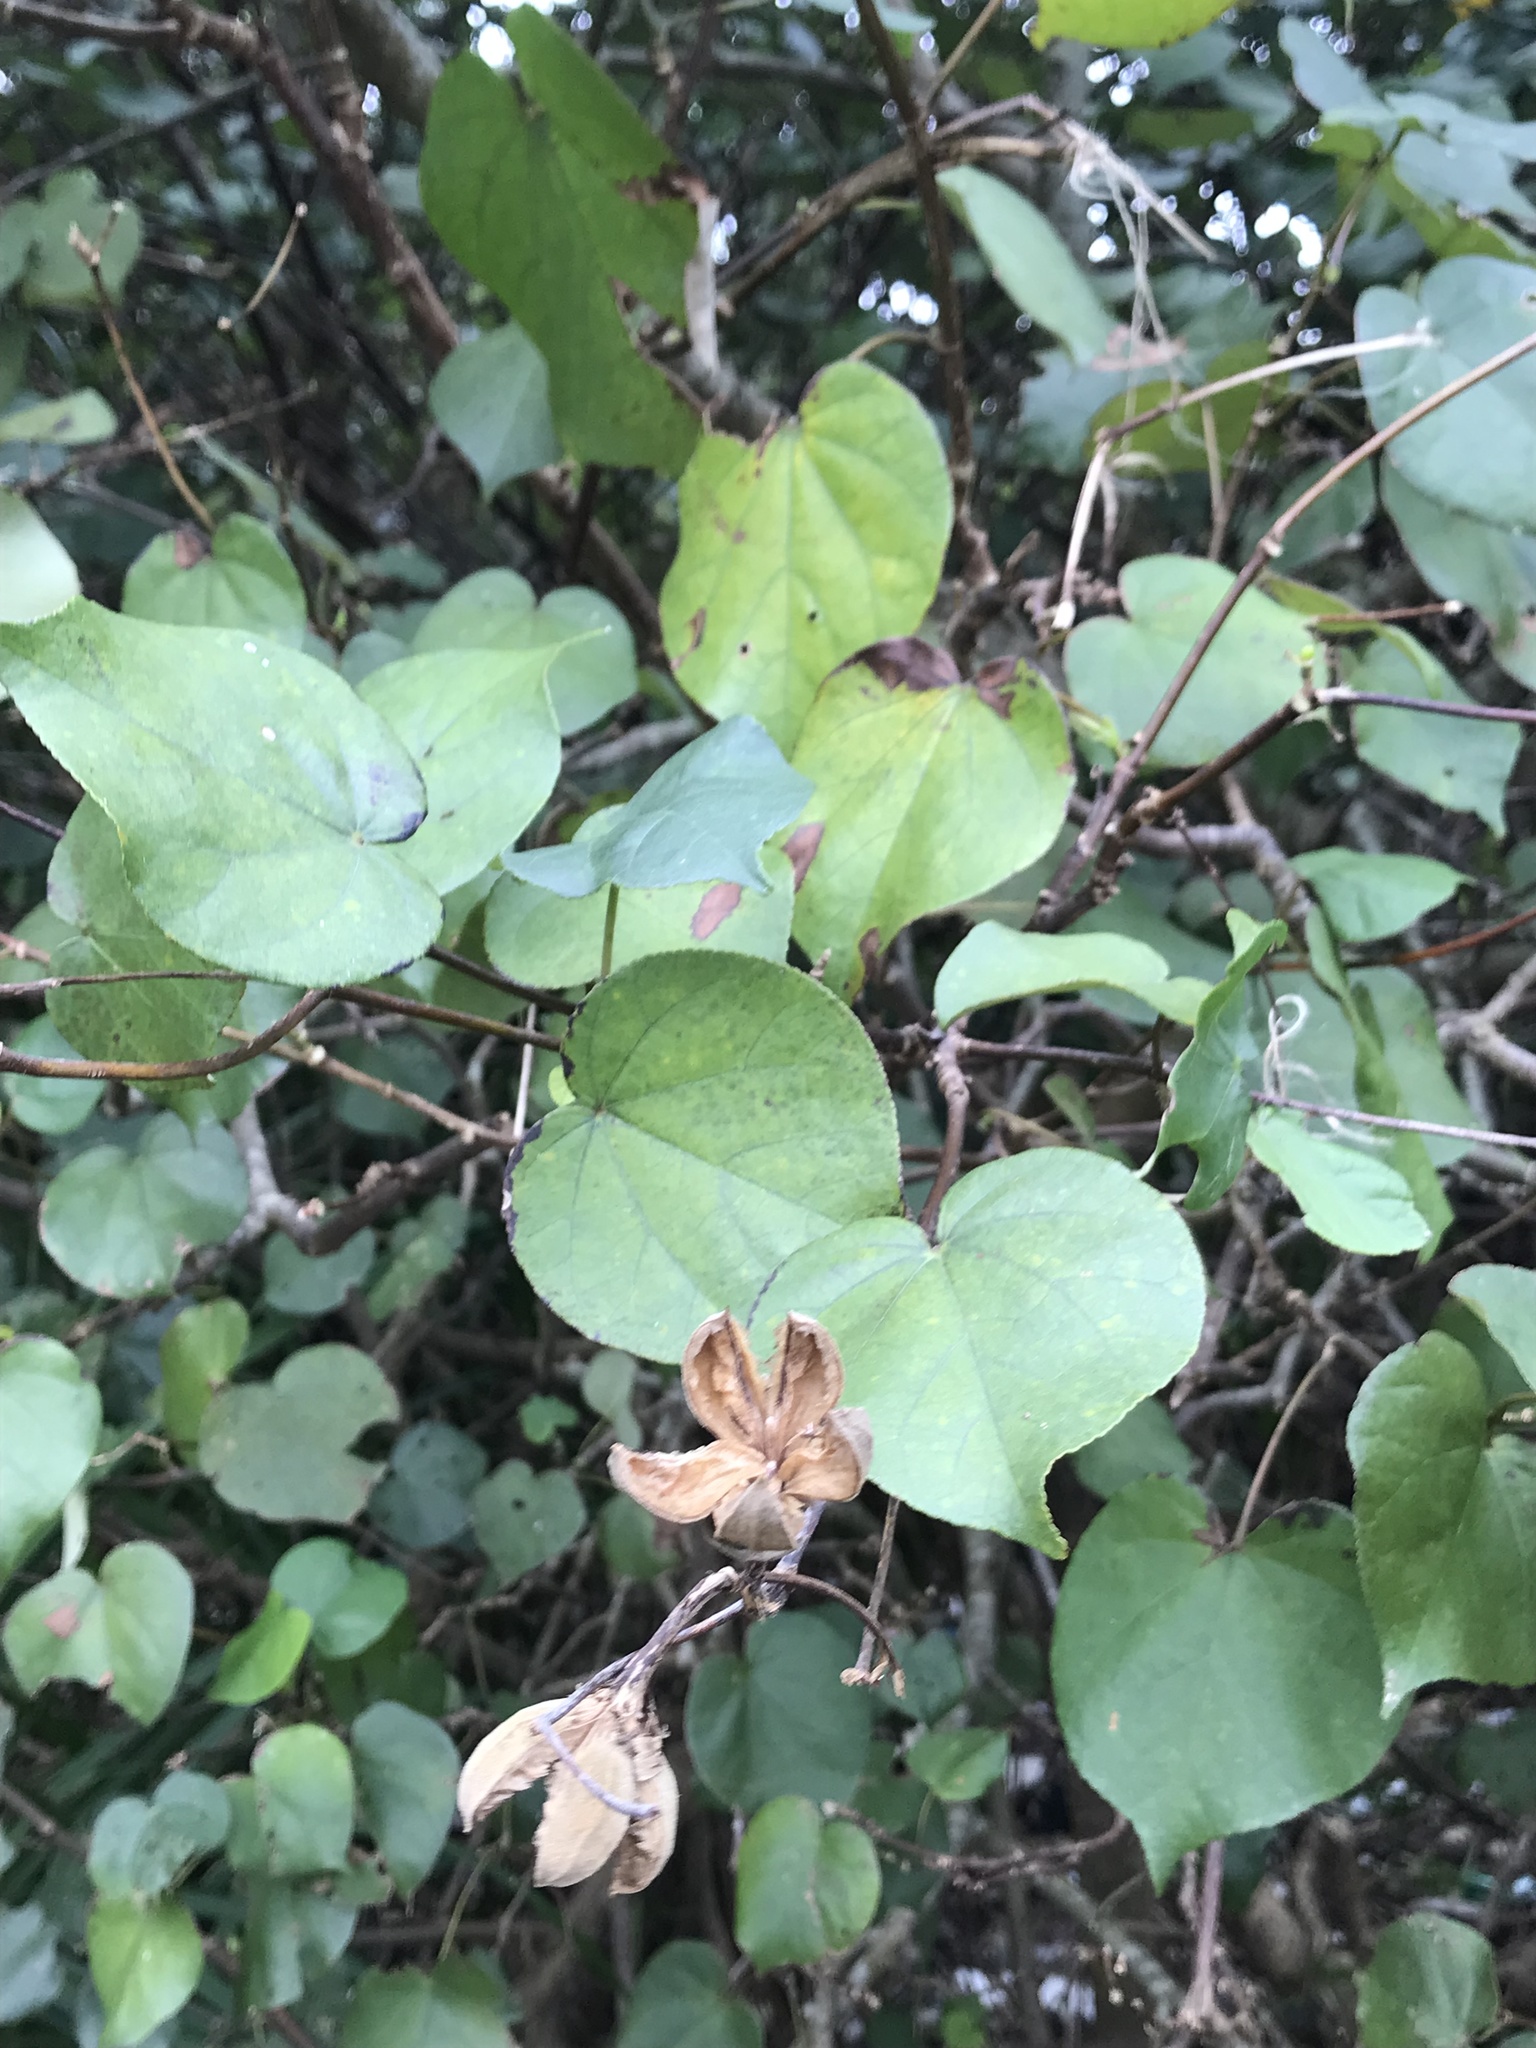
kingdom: Plantae
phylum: Tracheophyta
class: Magnoliopsida
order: Malvales
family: Malvaceae
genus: Talipariti
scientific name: Talipariti tiliaceum
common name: Sea hibiscus
